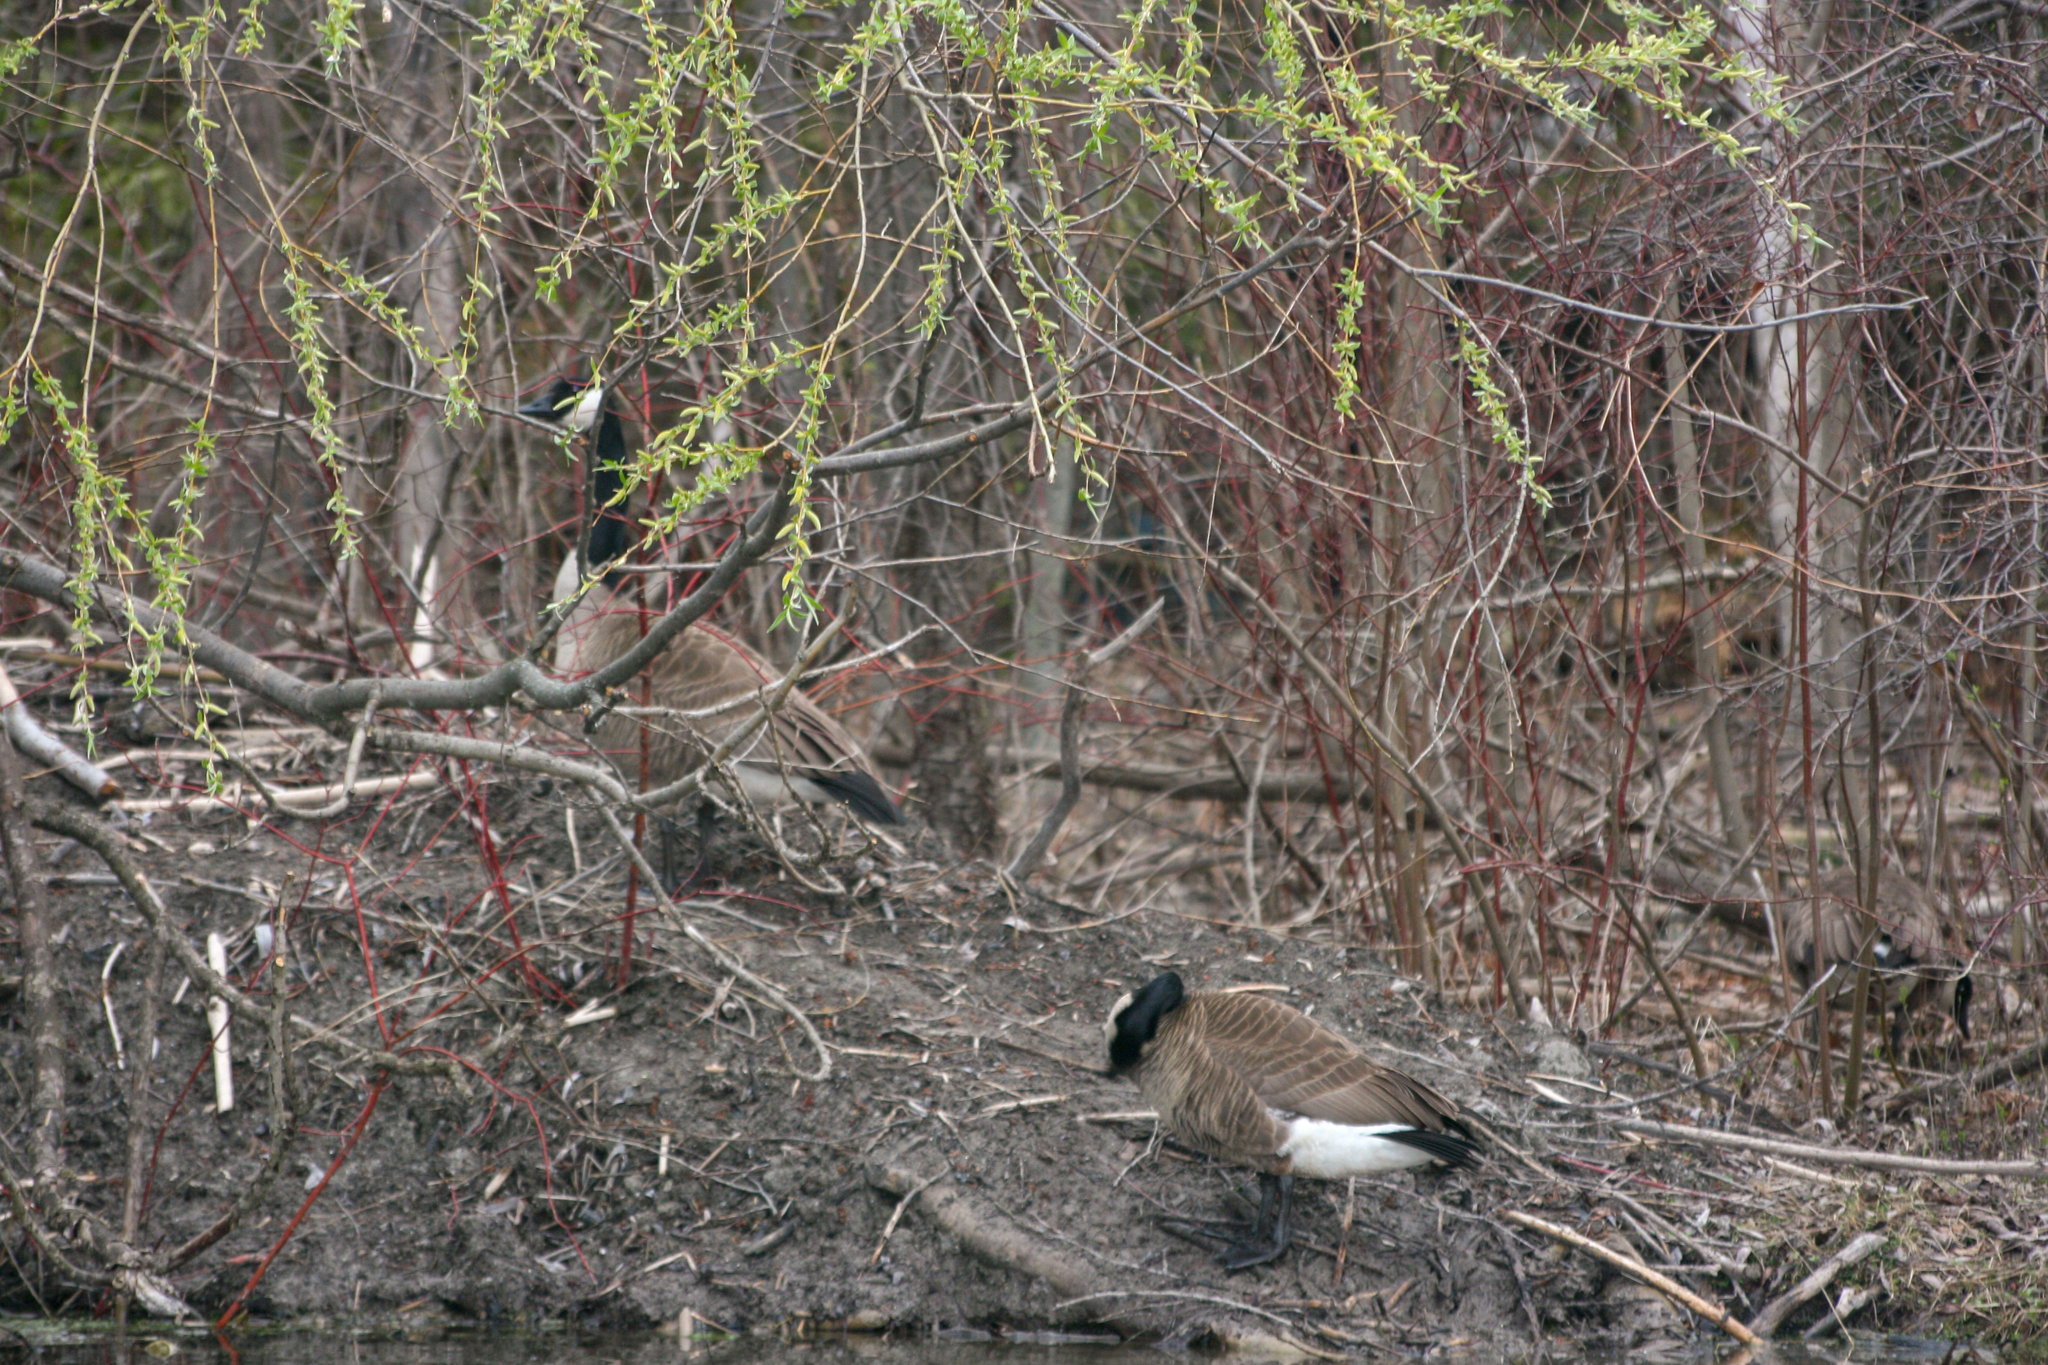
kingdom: Animalia
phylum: Chordata
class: Aves
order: Anseriformes
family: Anatidae
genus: Branta
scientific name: Branta canadensis
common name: Canada goose
